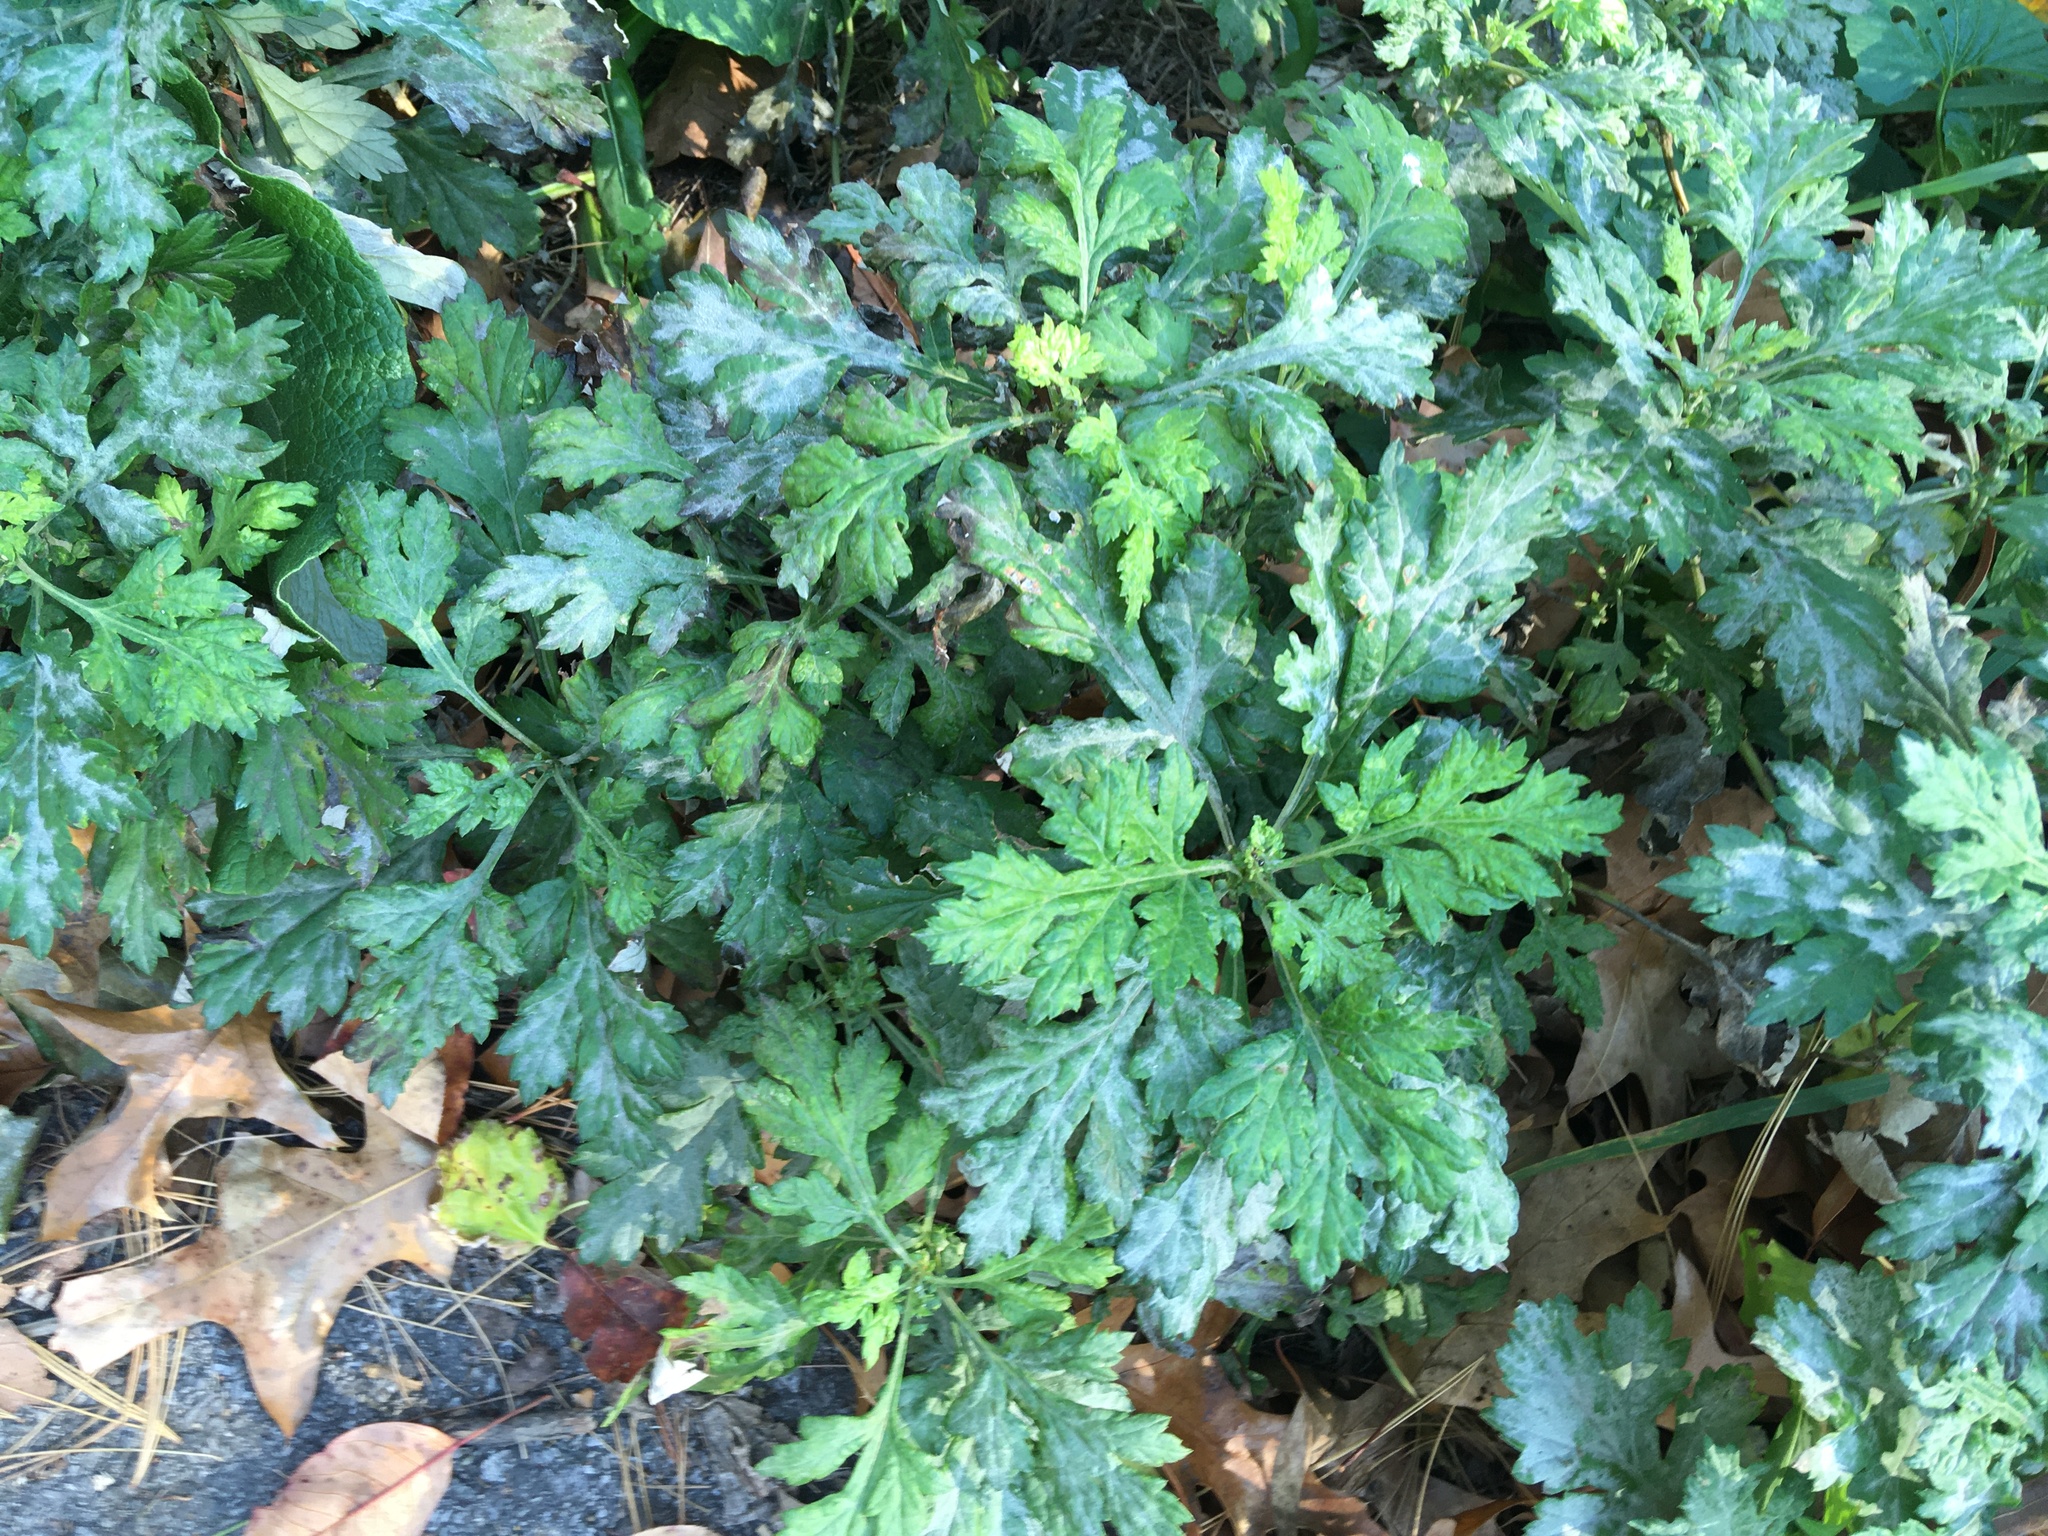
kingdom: Plantae
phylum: Tracheophyta
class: Magnoliopsida
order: Asterales
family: Asteraceae
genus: Artemisia
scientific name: Artemisia vulgaris
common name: Mugwort
